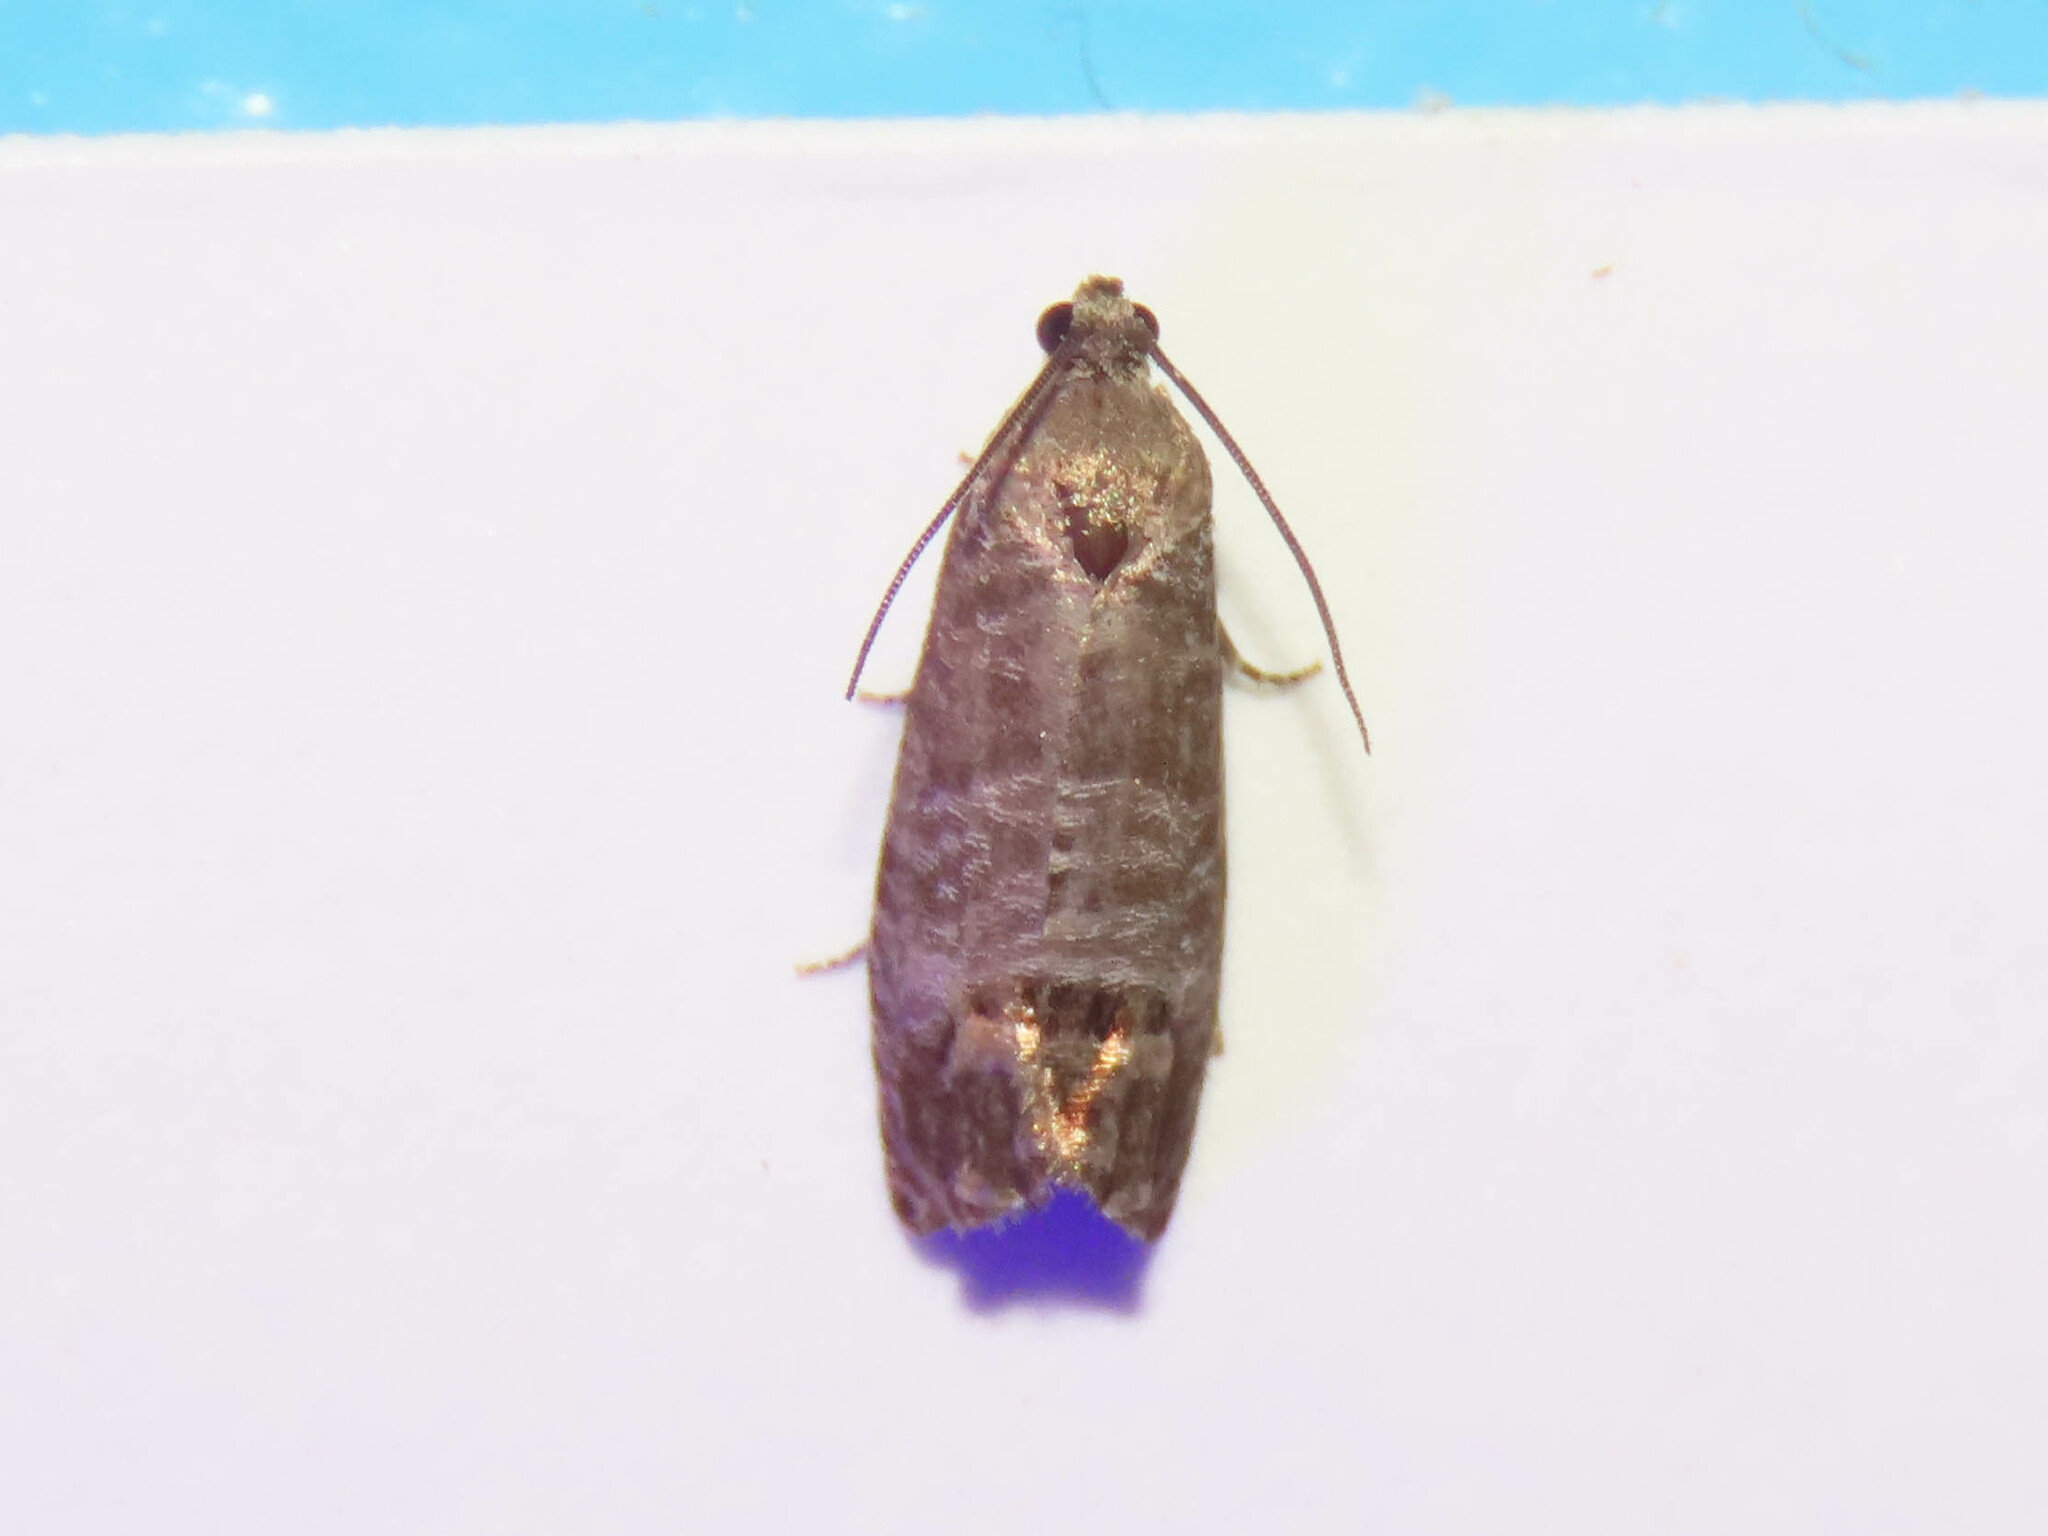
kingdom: Animalia
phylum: Arthropoda
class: Insecta
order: Lepidoptera
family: Tortricidae
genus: Cydia
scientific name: Cydia pomonella
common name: Codling moth
